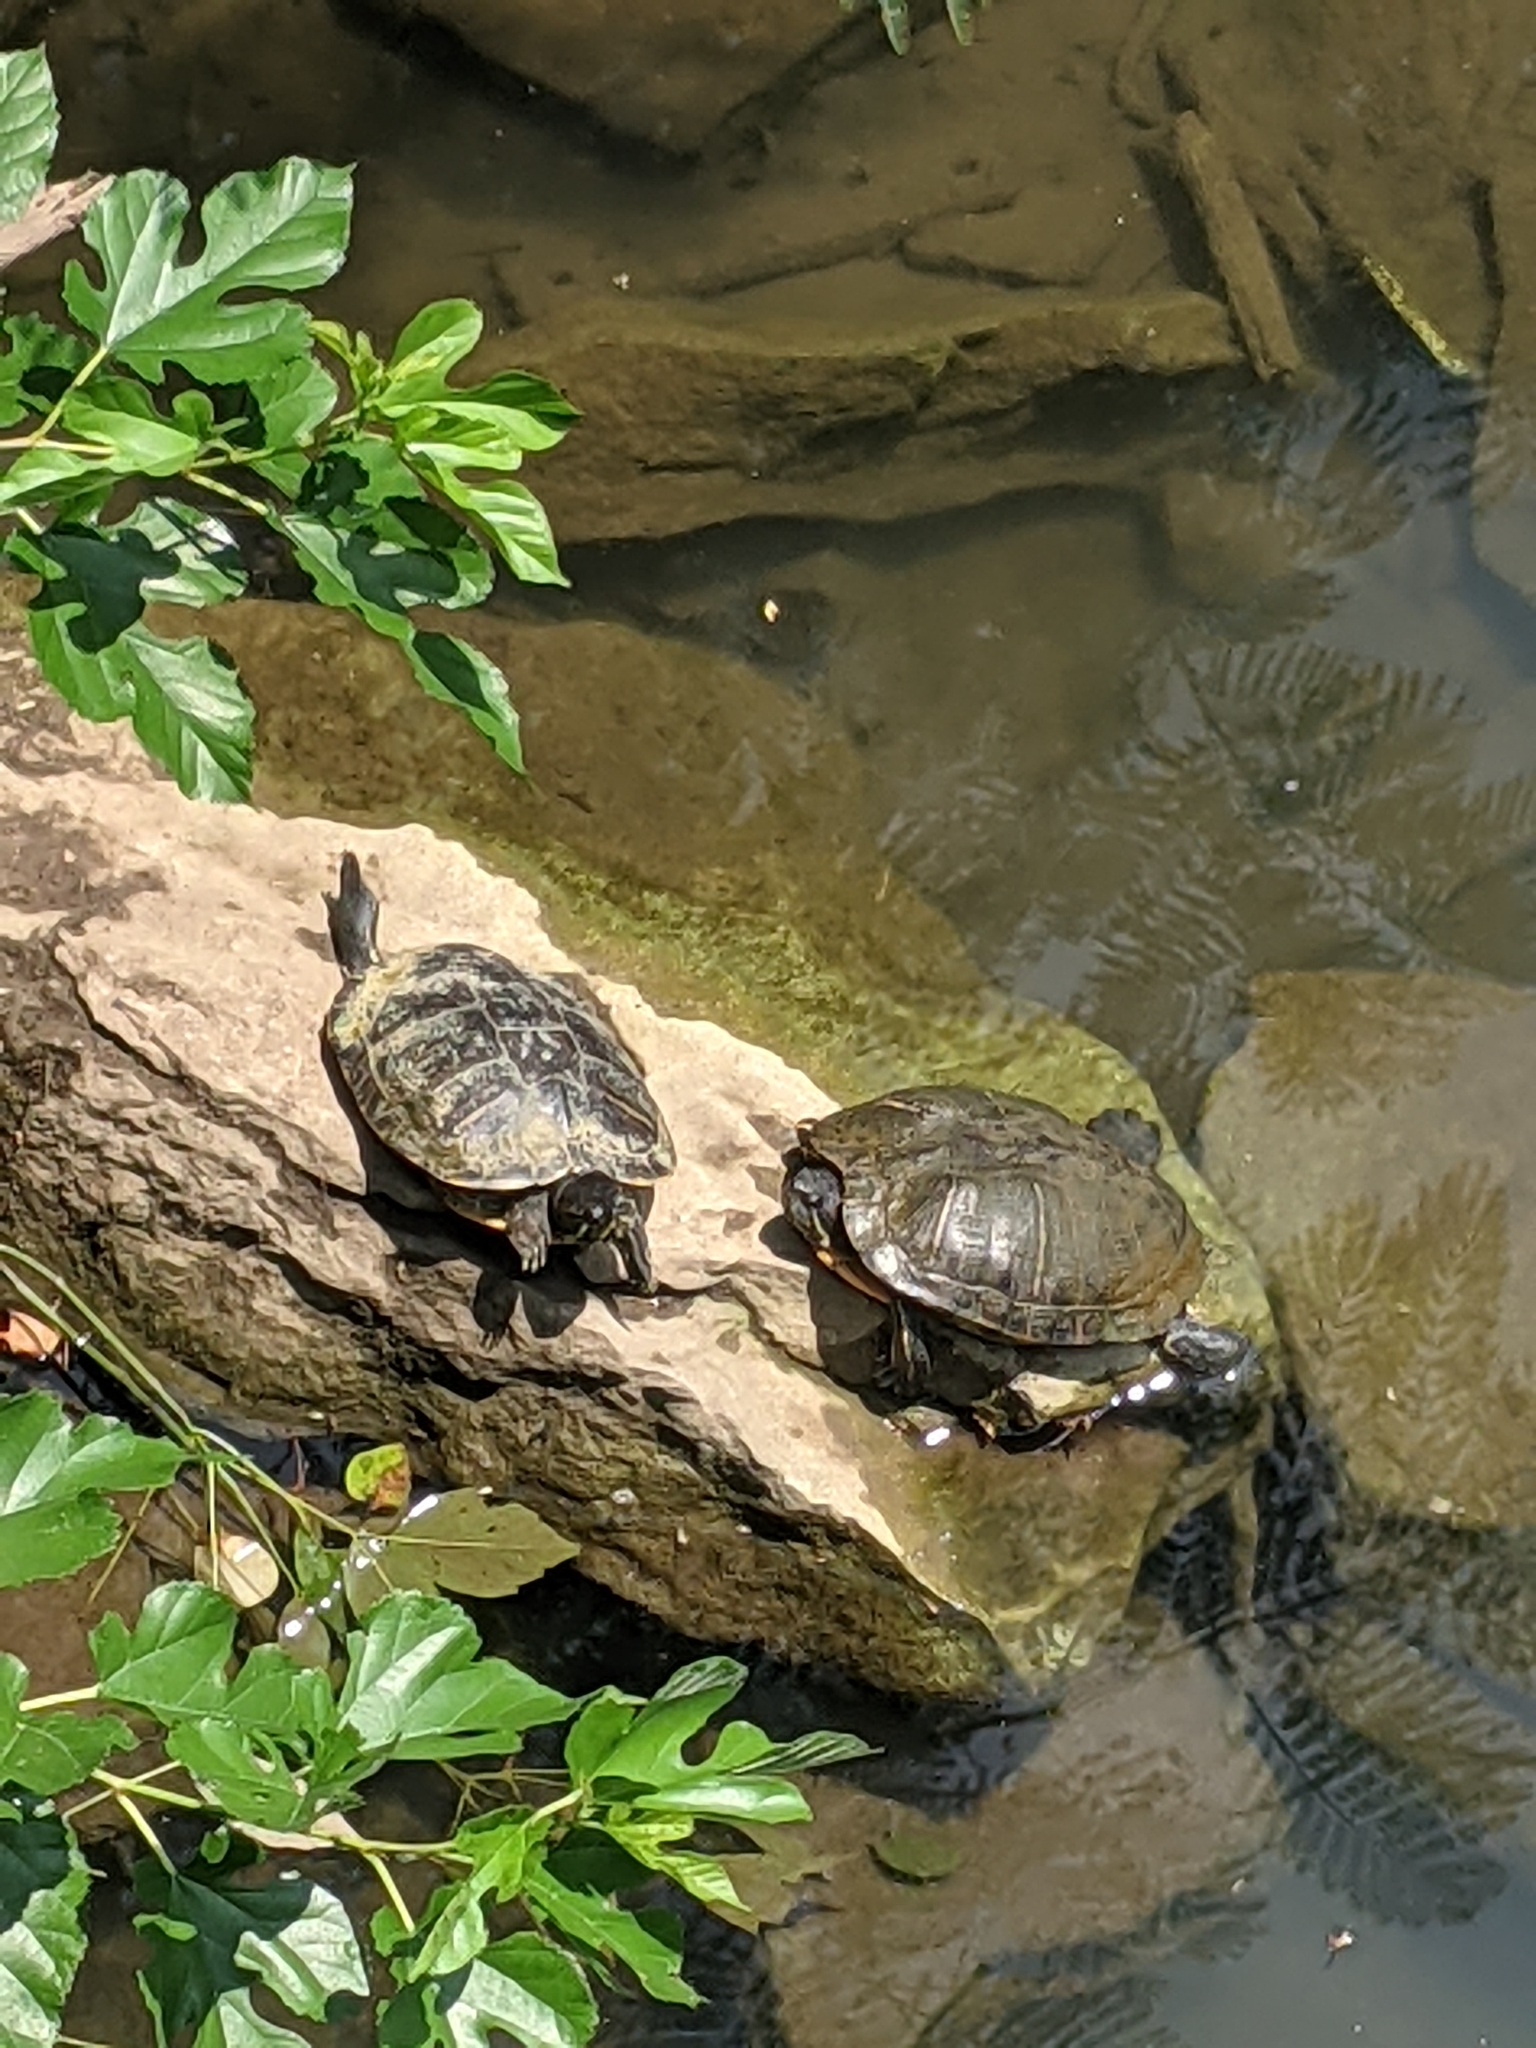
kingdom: Animalia
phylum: Chordata
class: Testudines
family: Emydidae
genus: Trachemys
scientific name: Trachemys scripta
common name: Slider
